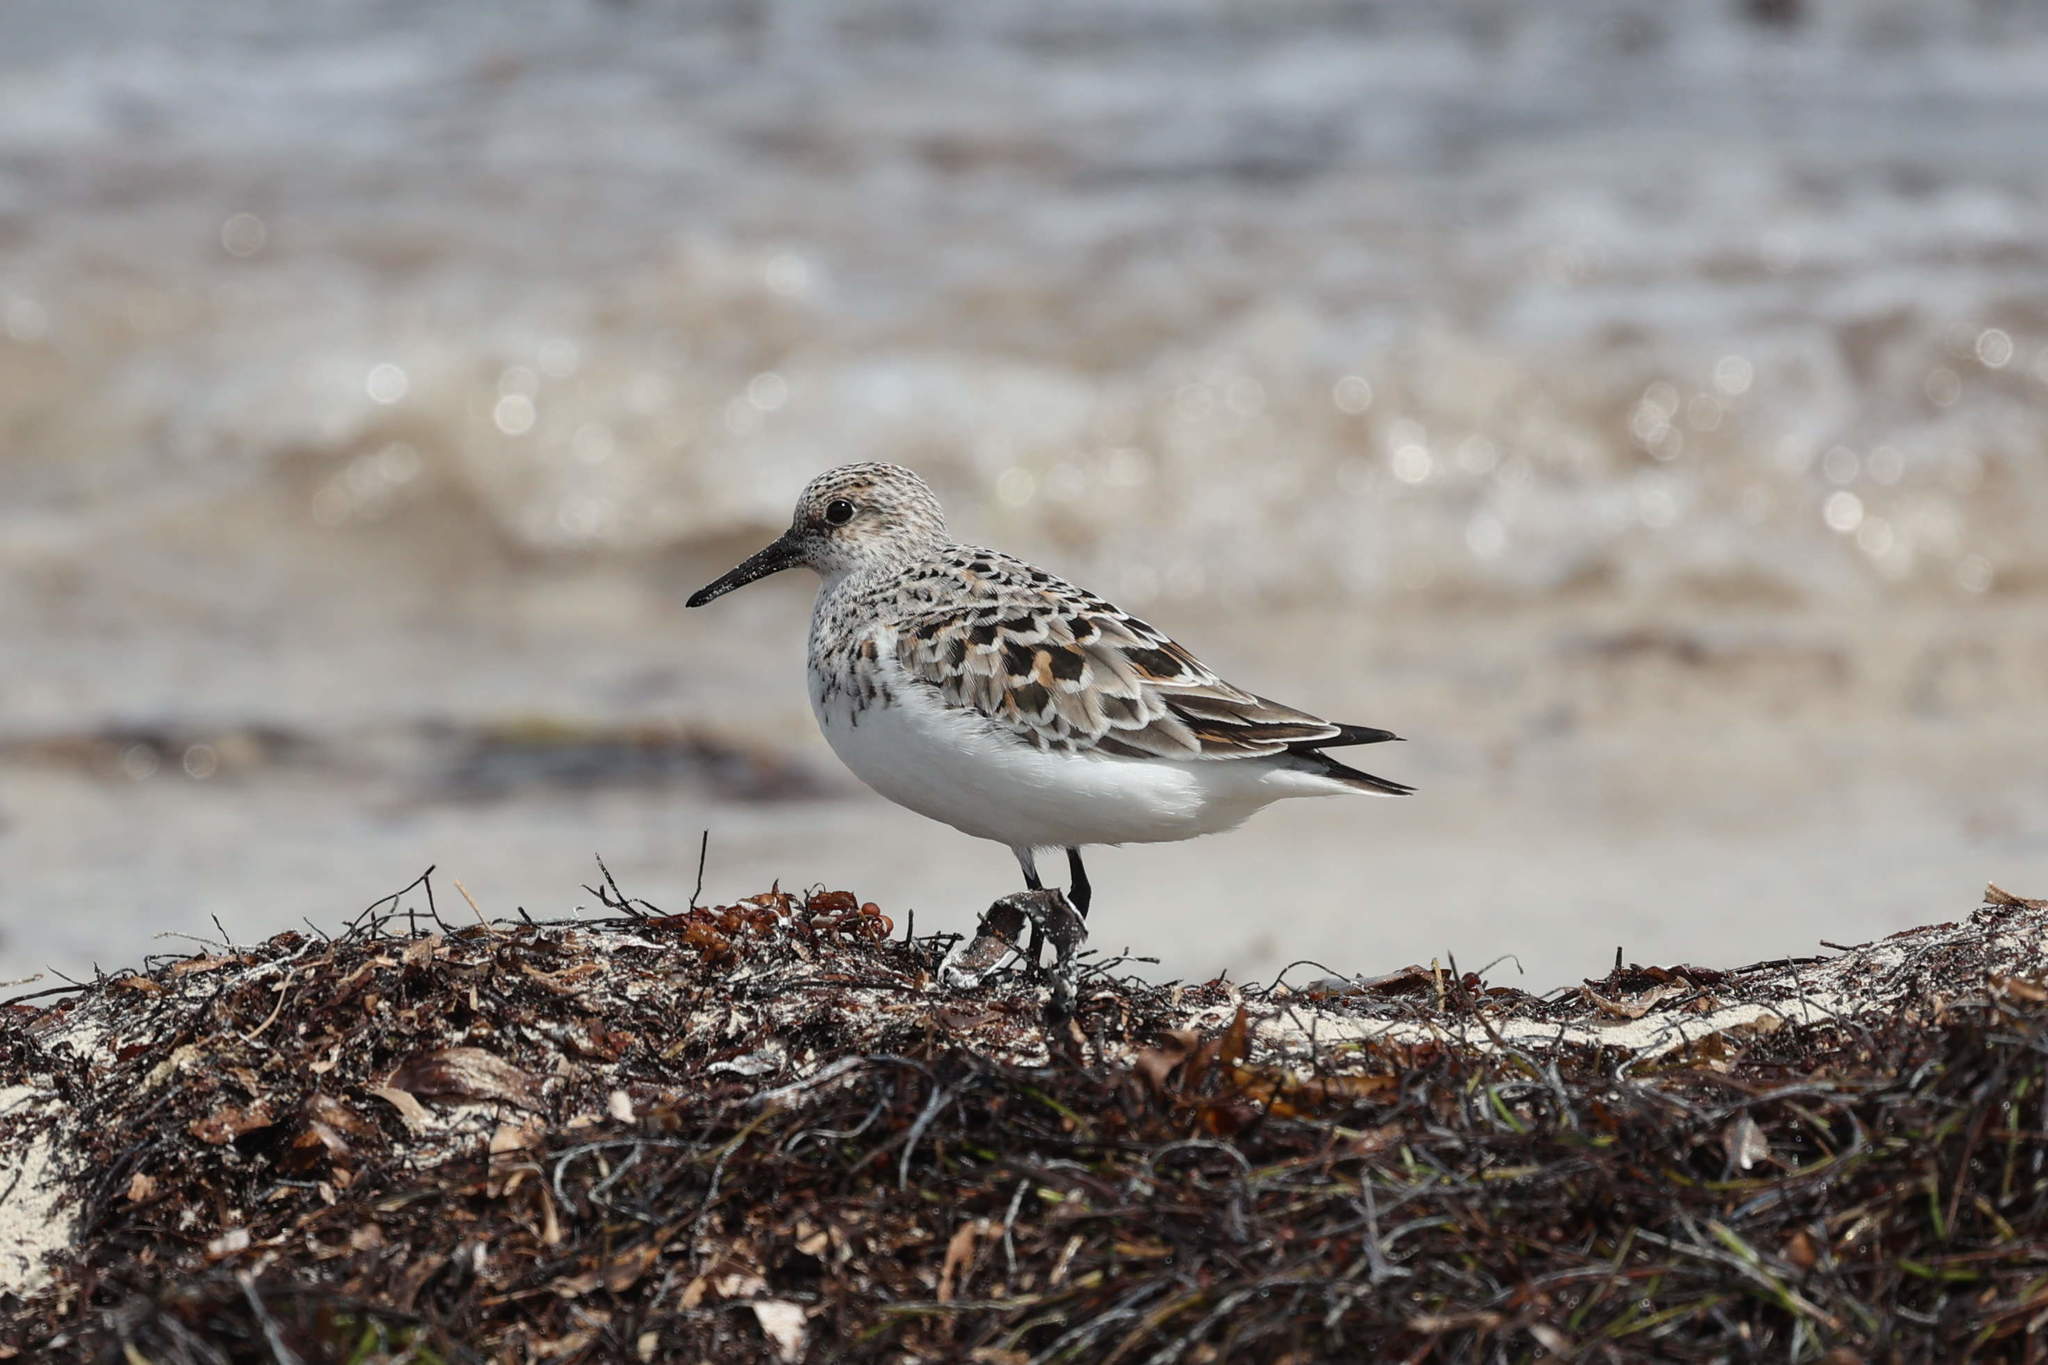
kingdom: Animalia
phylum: Chordata
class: Aves
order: Charadriiformes
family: Scolopacidae
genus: Calidris
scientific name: Calidris alba
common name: Sanderling
